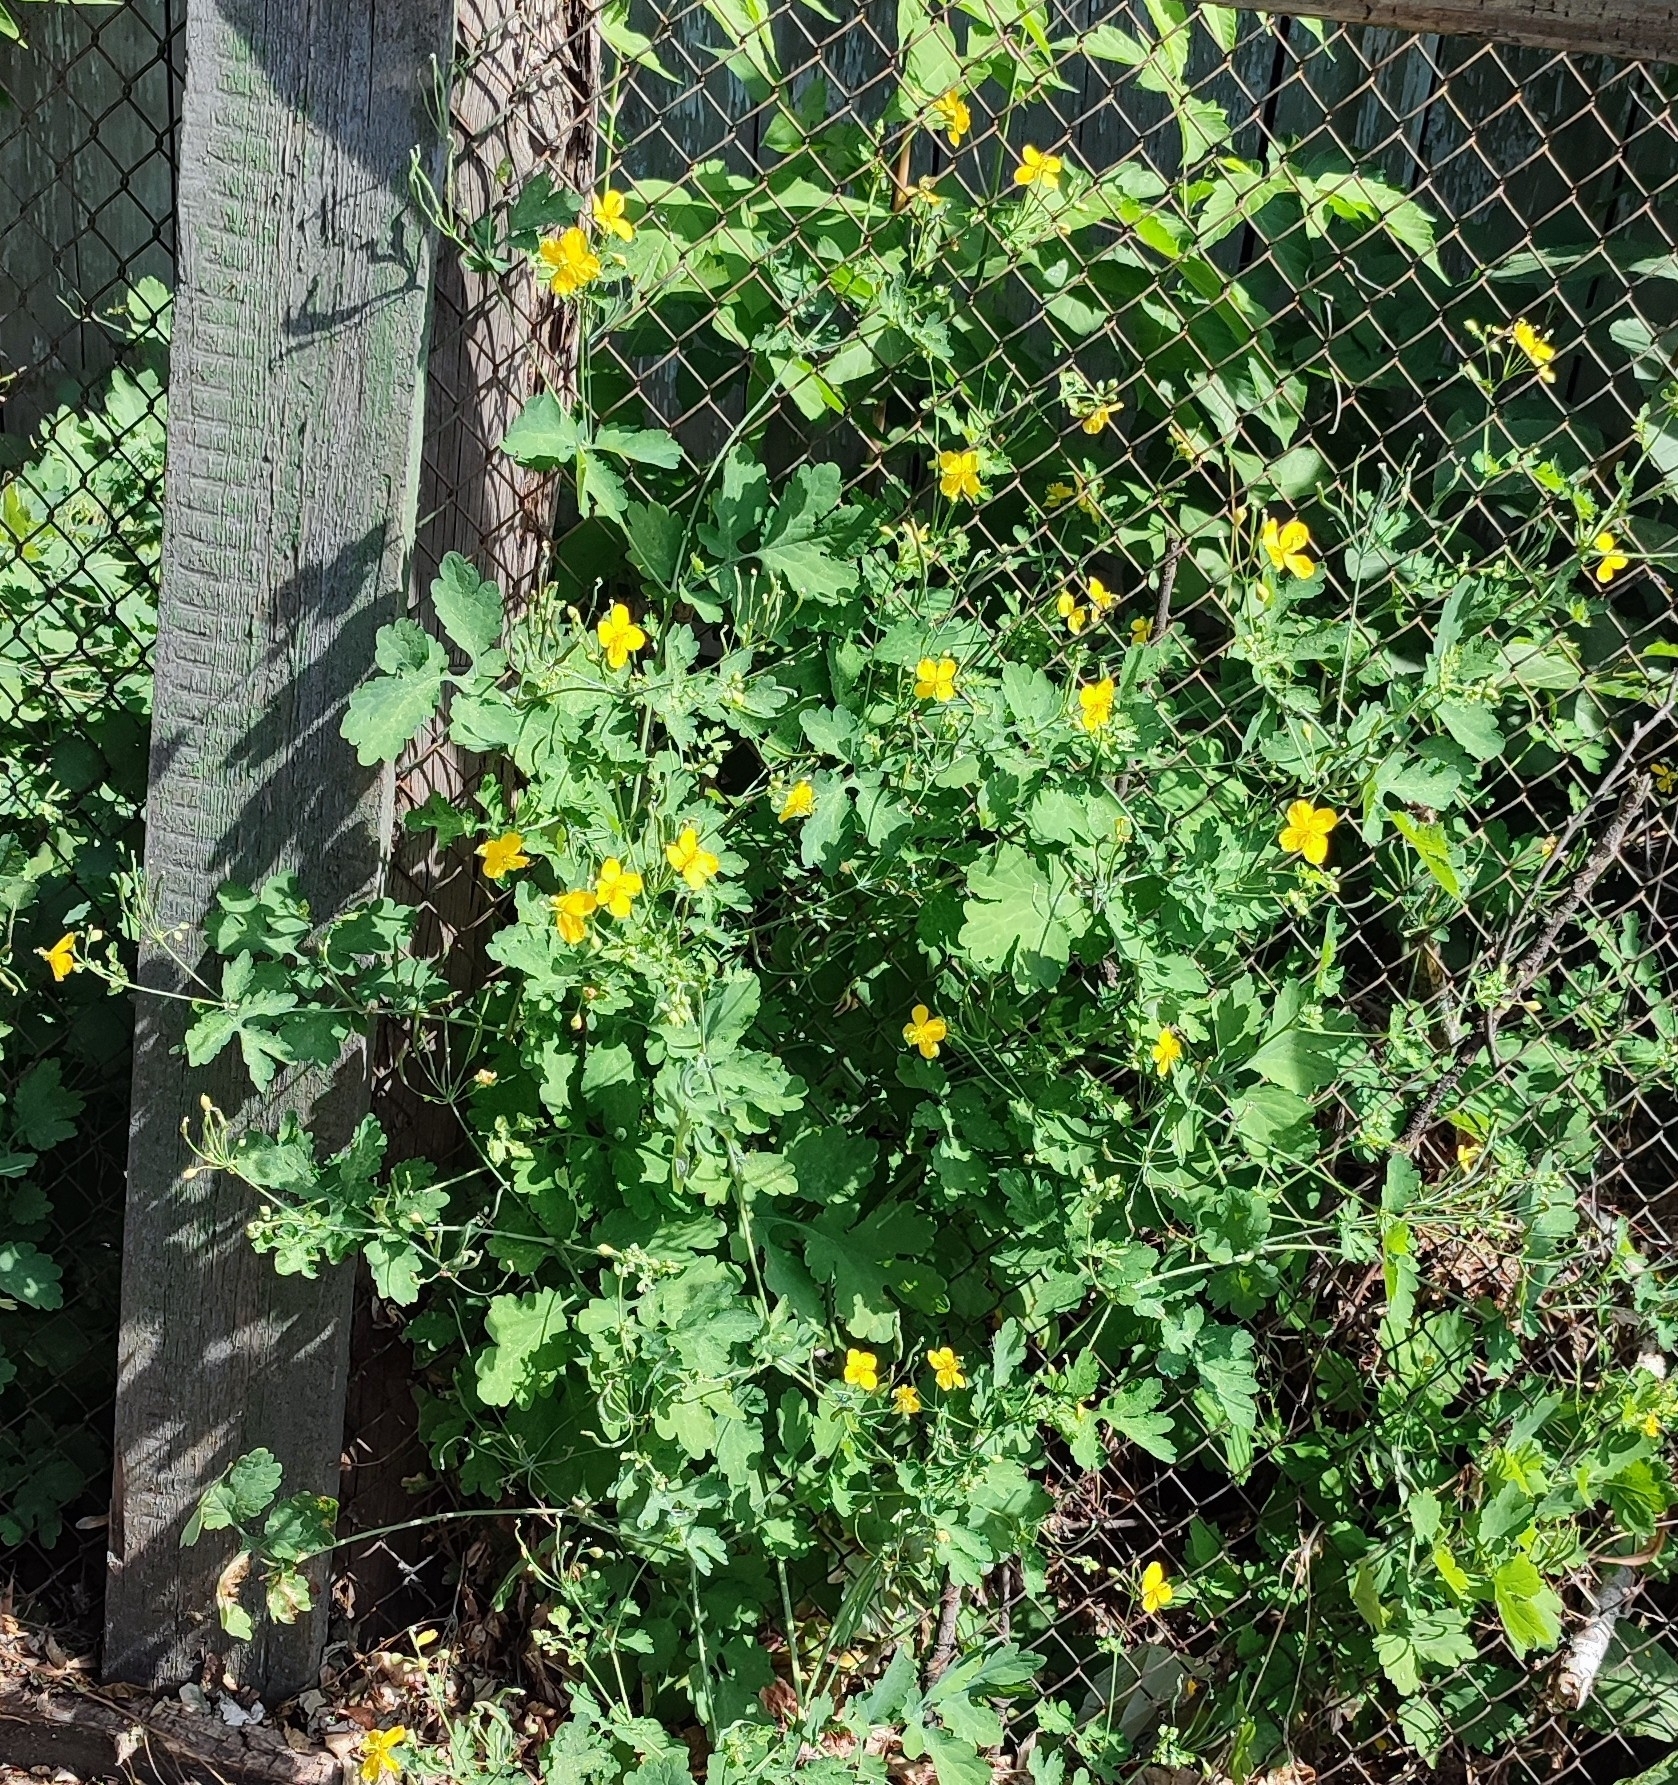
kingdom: Plantae
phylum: Tracheophyta
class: Magnoliopsida
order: Ranunculales
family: Papaveraceae
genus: Chelidonium
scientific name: Chelidonium majus
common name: Greater celandine
